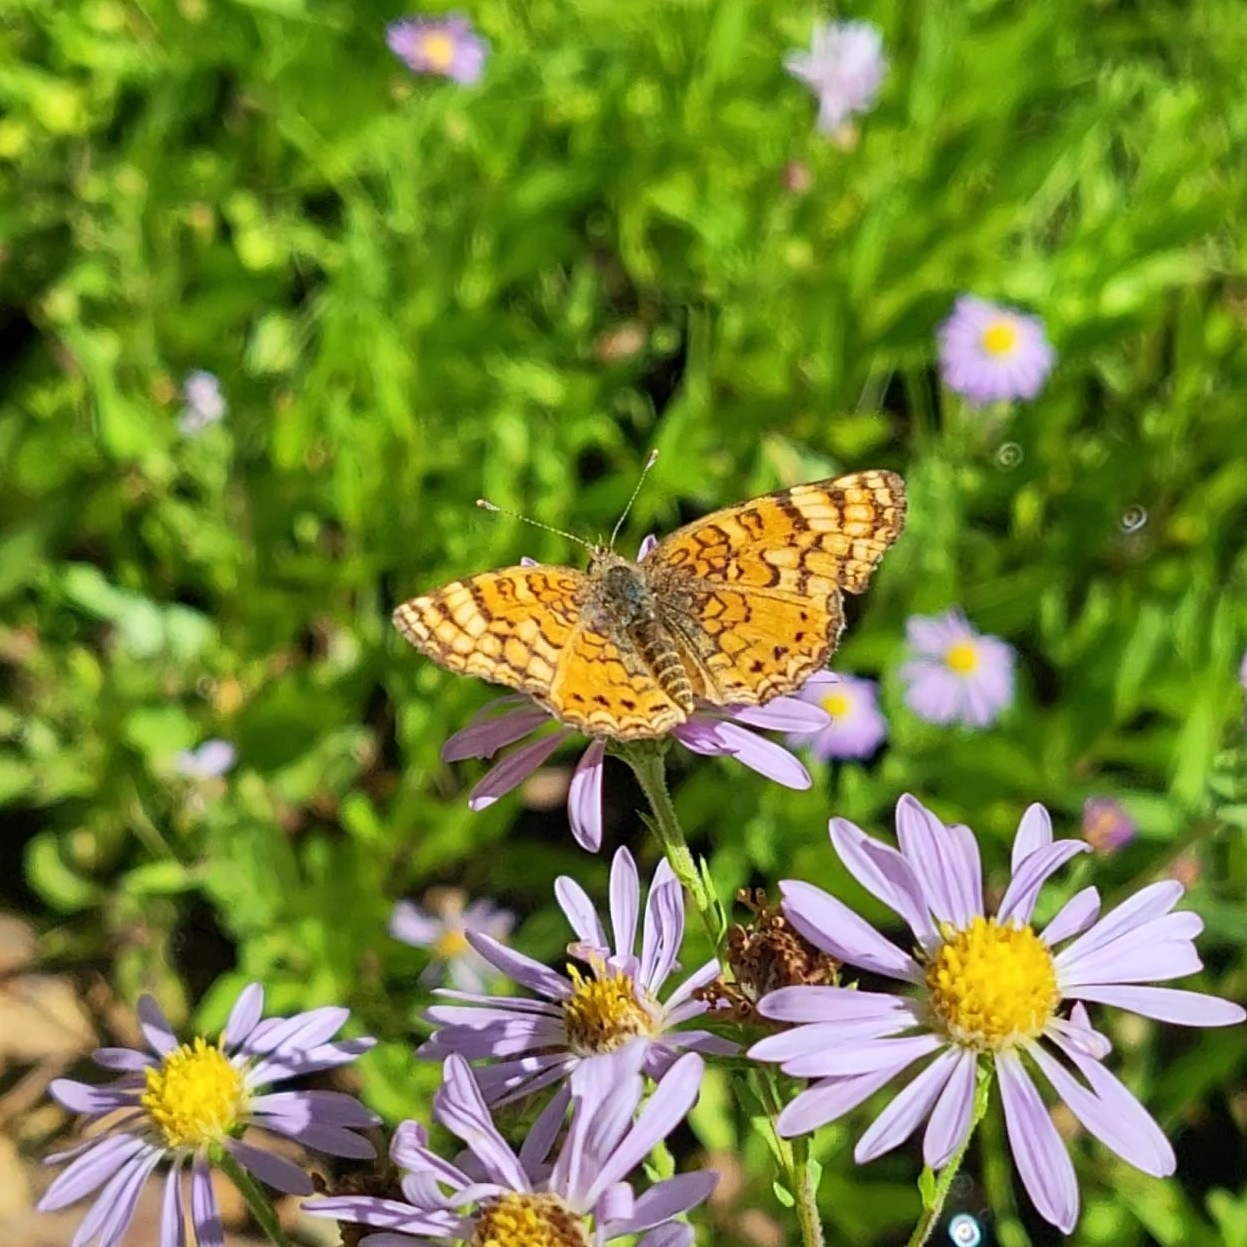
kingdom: Animalia
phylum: Arthropoda
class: Insecta
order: Lepidoptera
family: Nymphalidae
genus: Eresia
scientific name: Eresia aveyrona
